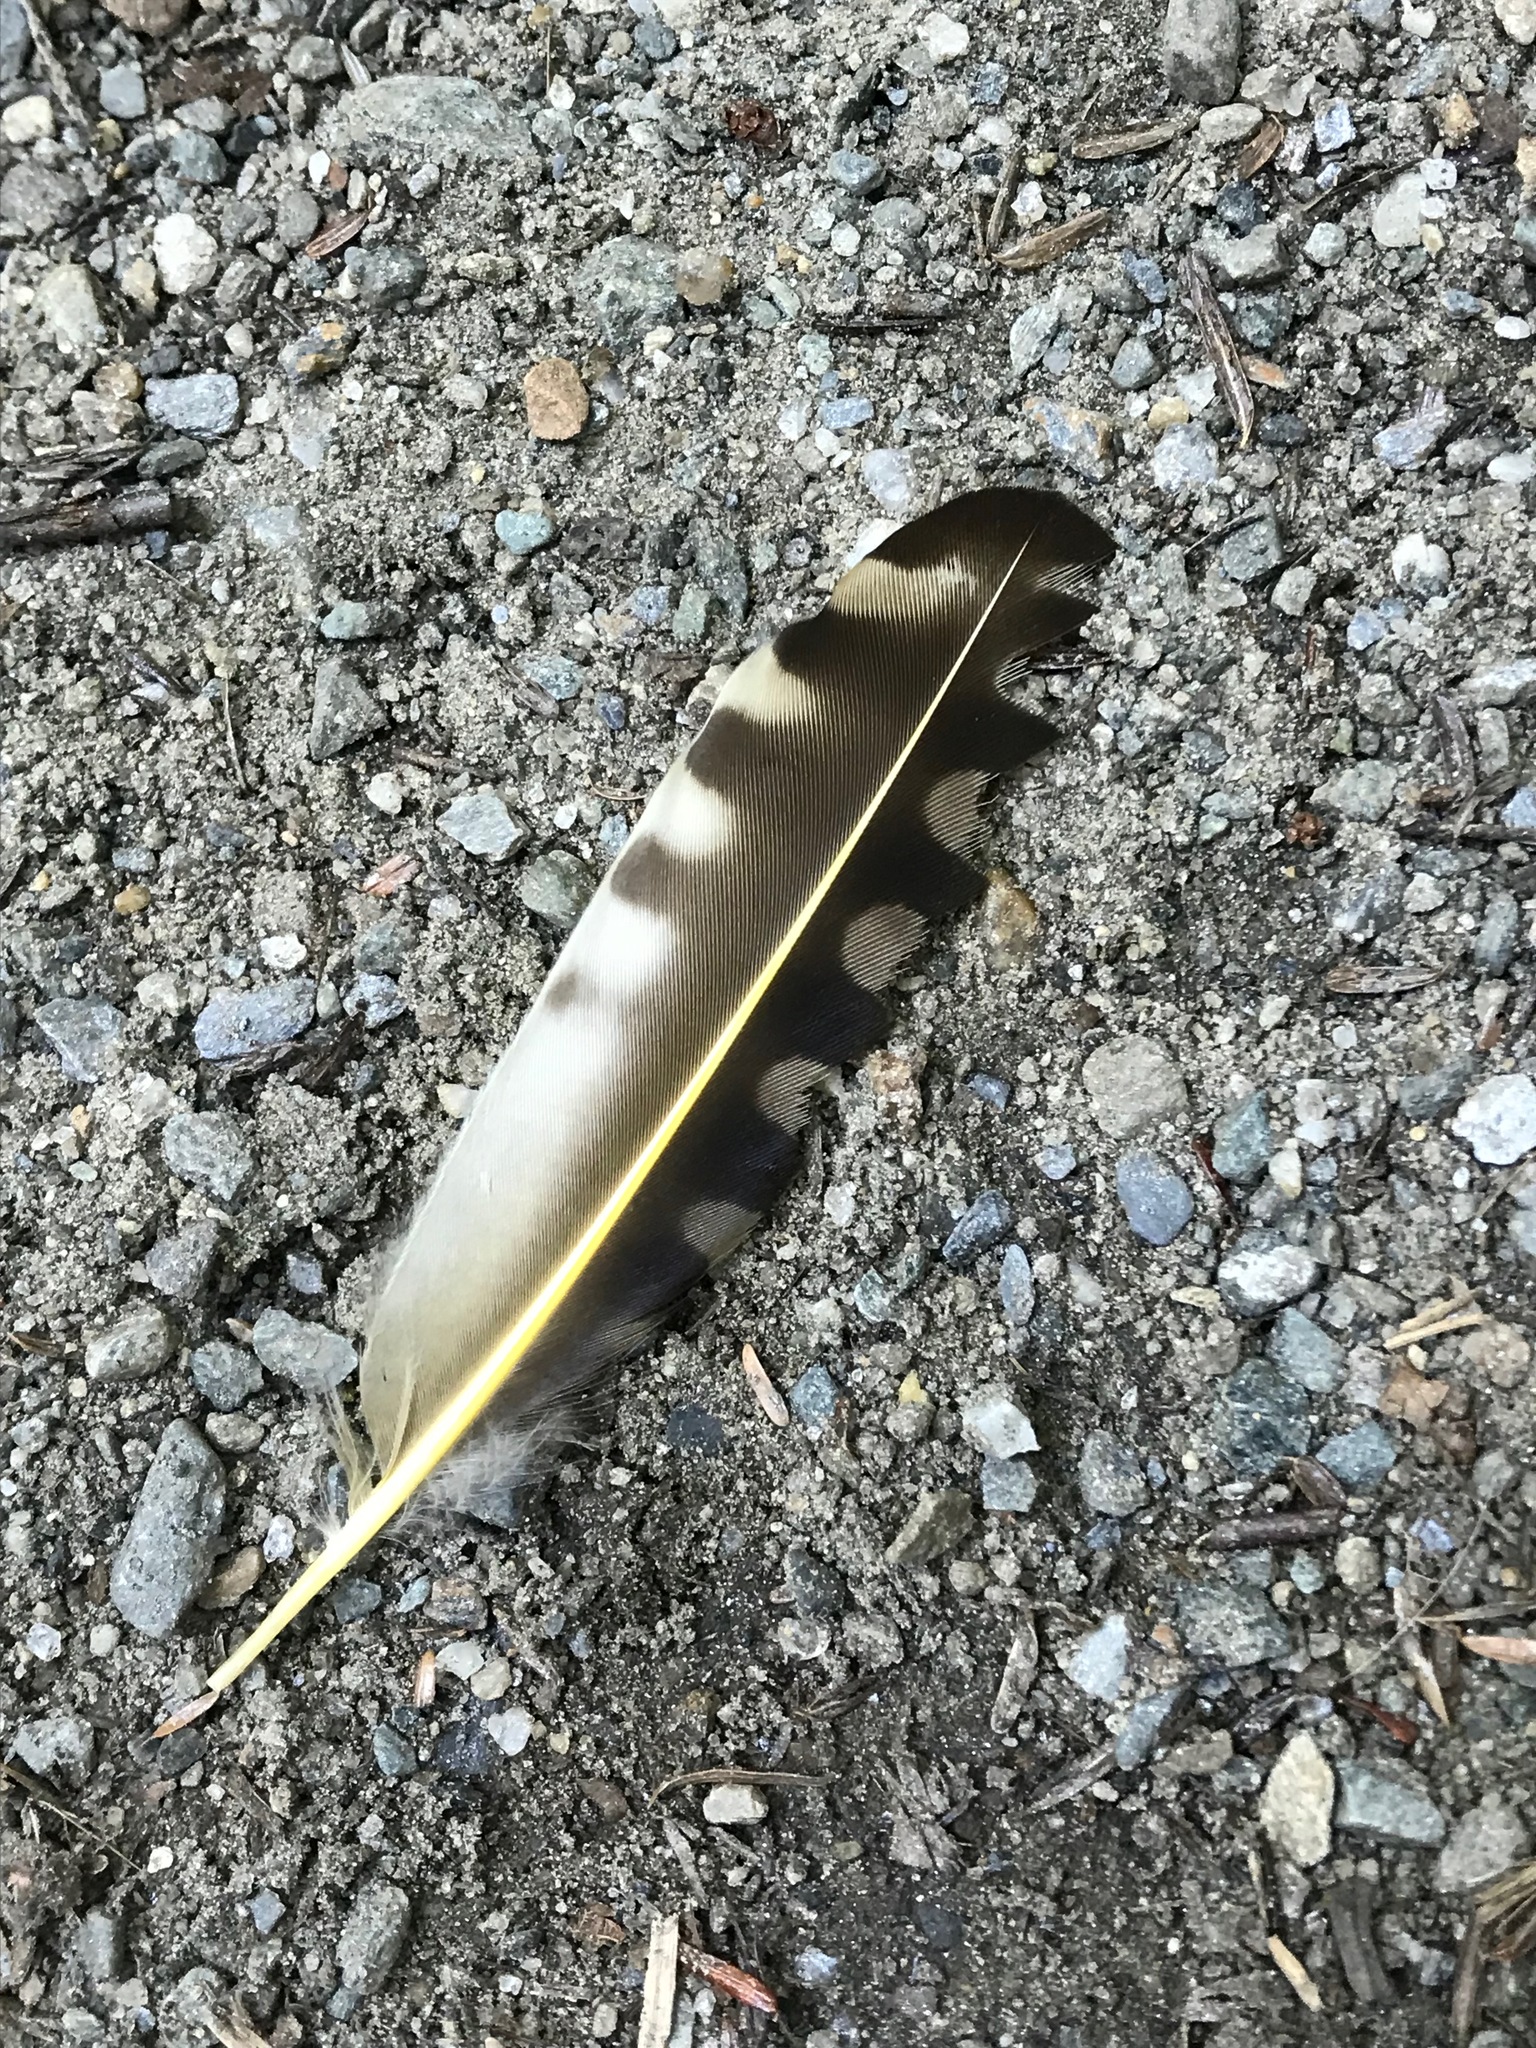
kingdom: Animalia
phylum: Chordata
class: Aves
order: Piciformes
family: Picidae
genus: Colaptes
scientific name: Colaptes auratus
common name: Northern flicker
